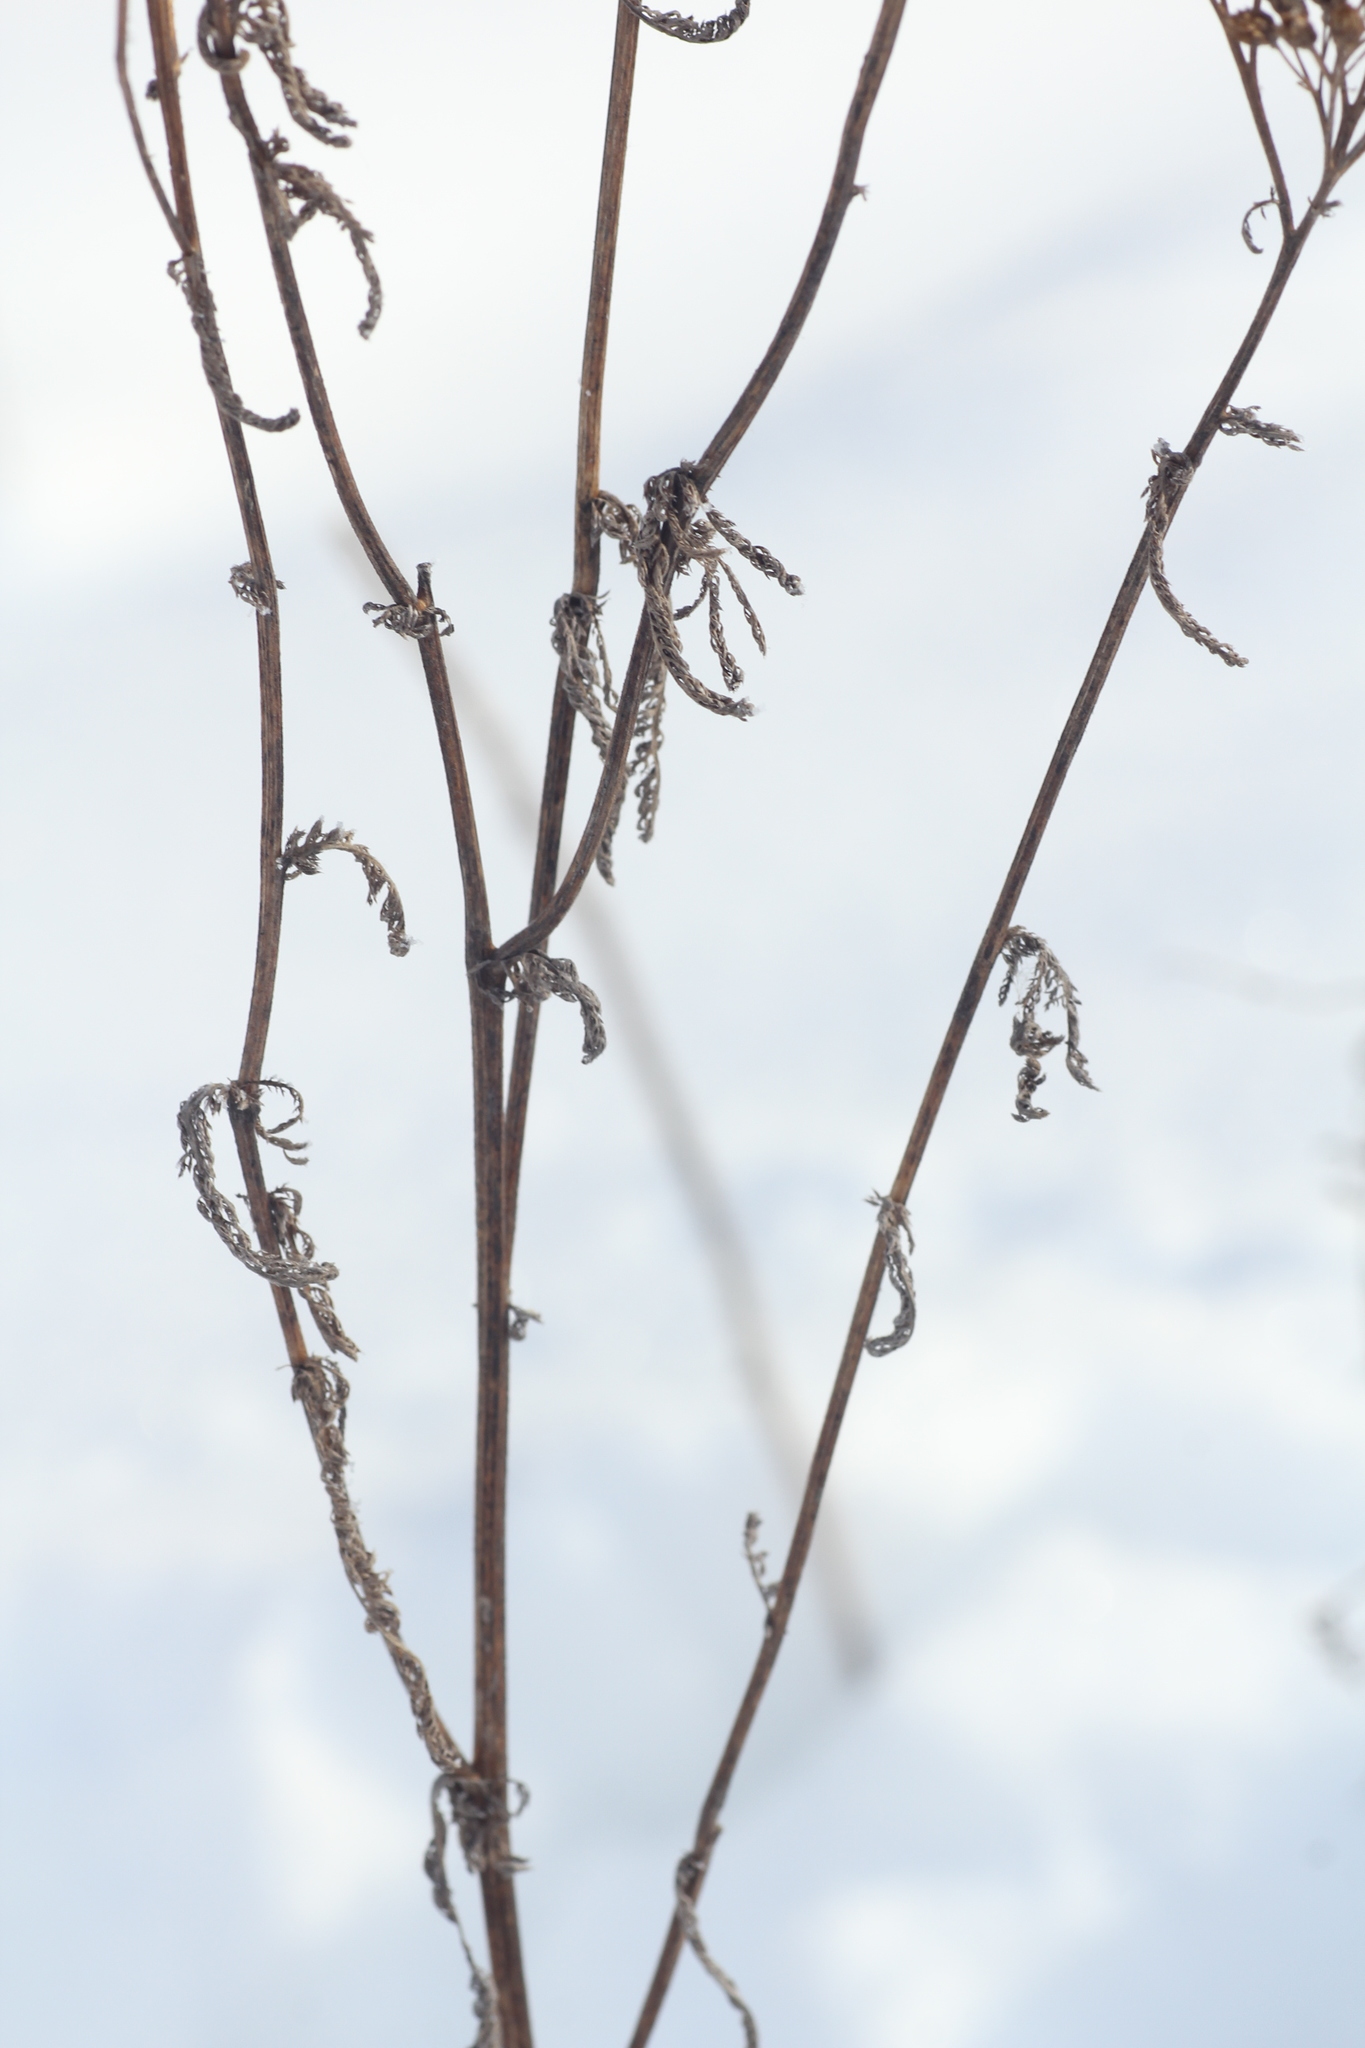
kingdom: Plantae
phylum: Tracheophyta
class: Magnoliopsida
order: Asterales
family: Asteraceae
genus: Achillea
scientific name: Achillea asiatica
